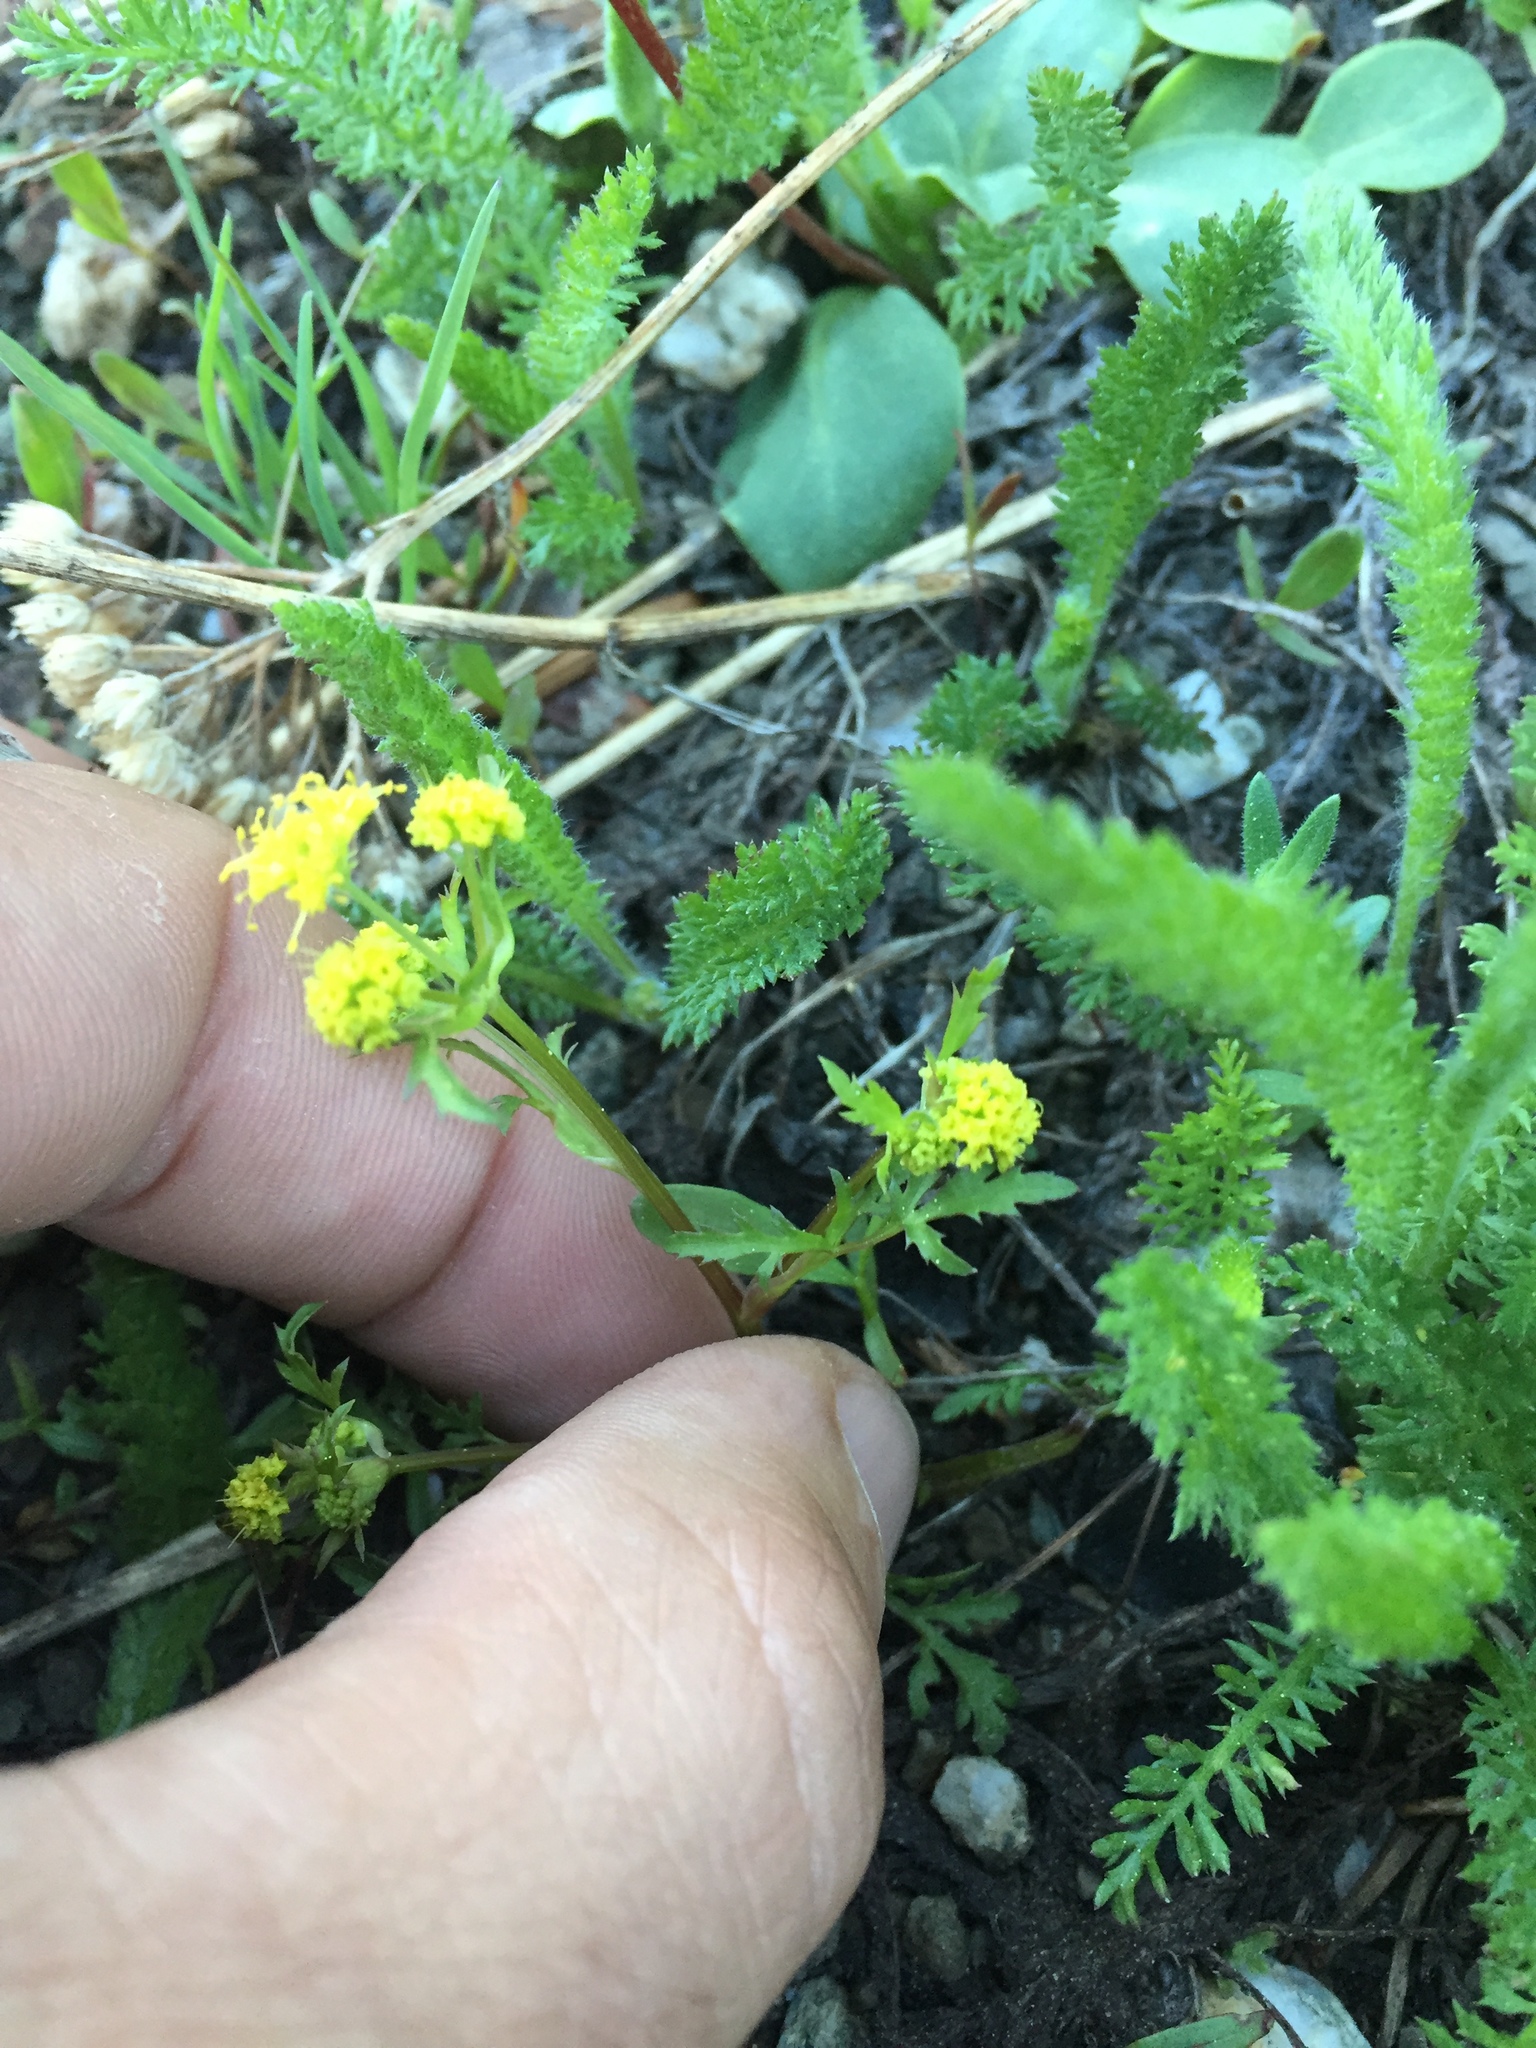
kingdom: Plantae
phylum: Tracheophyta
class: Magnoliopsida
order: Apiales
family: Apiaceae
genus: Sanicula
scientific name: Sanicula tuberosa
